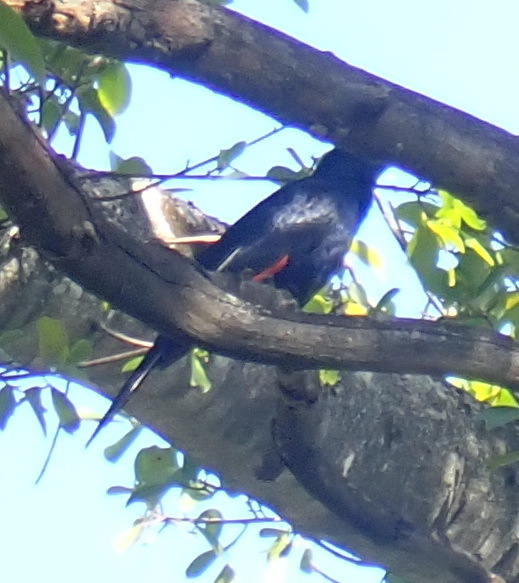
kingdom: Animalia
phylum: Chordata
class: Aves
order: Passeriformes
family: Sturnidae
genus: Onychognathus
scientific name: Onychognathus morio
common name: Red-winged starling
